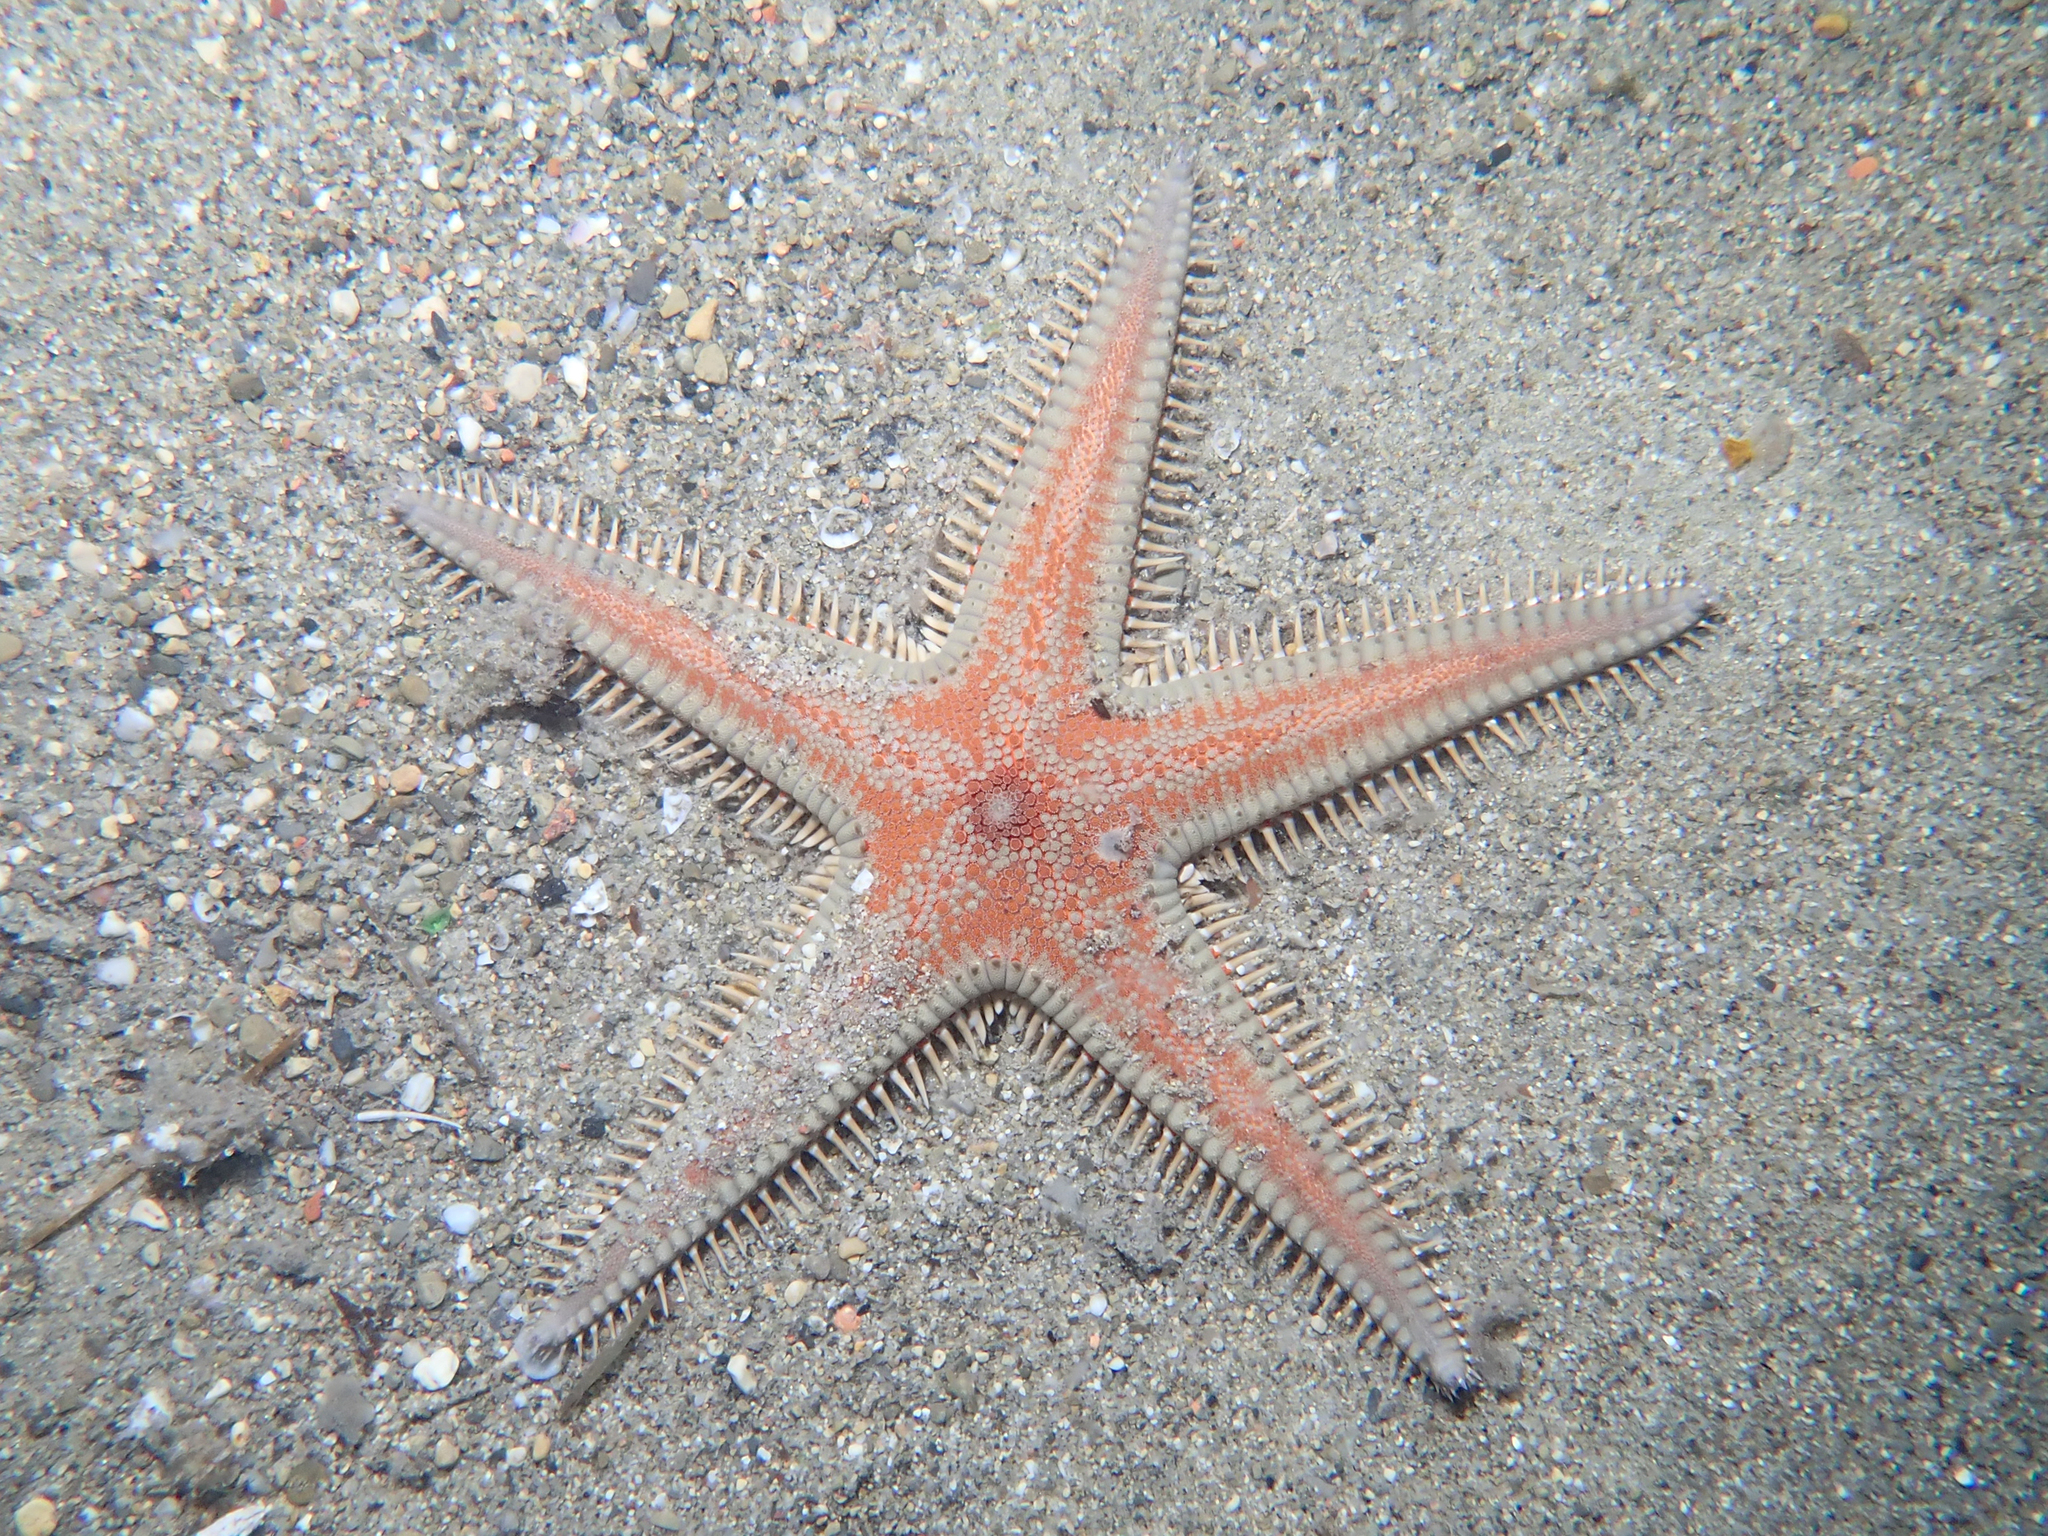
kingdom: Animalia
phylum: Echinodermata
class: Asteroidea
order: Paxillosida
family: Astropectinidae
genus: Astropecten
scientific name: Astropecten aranciacus
